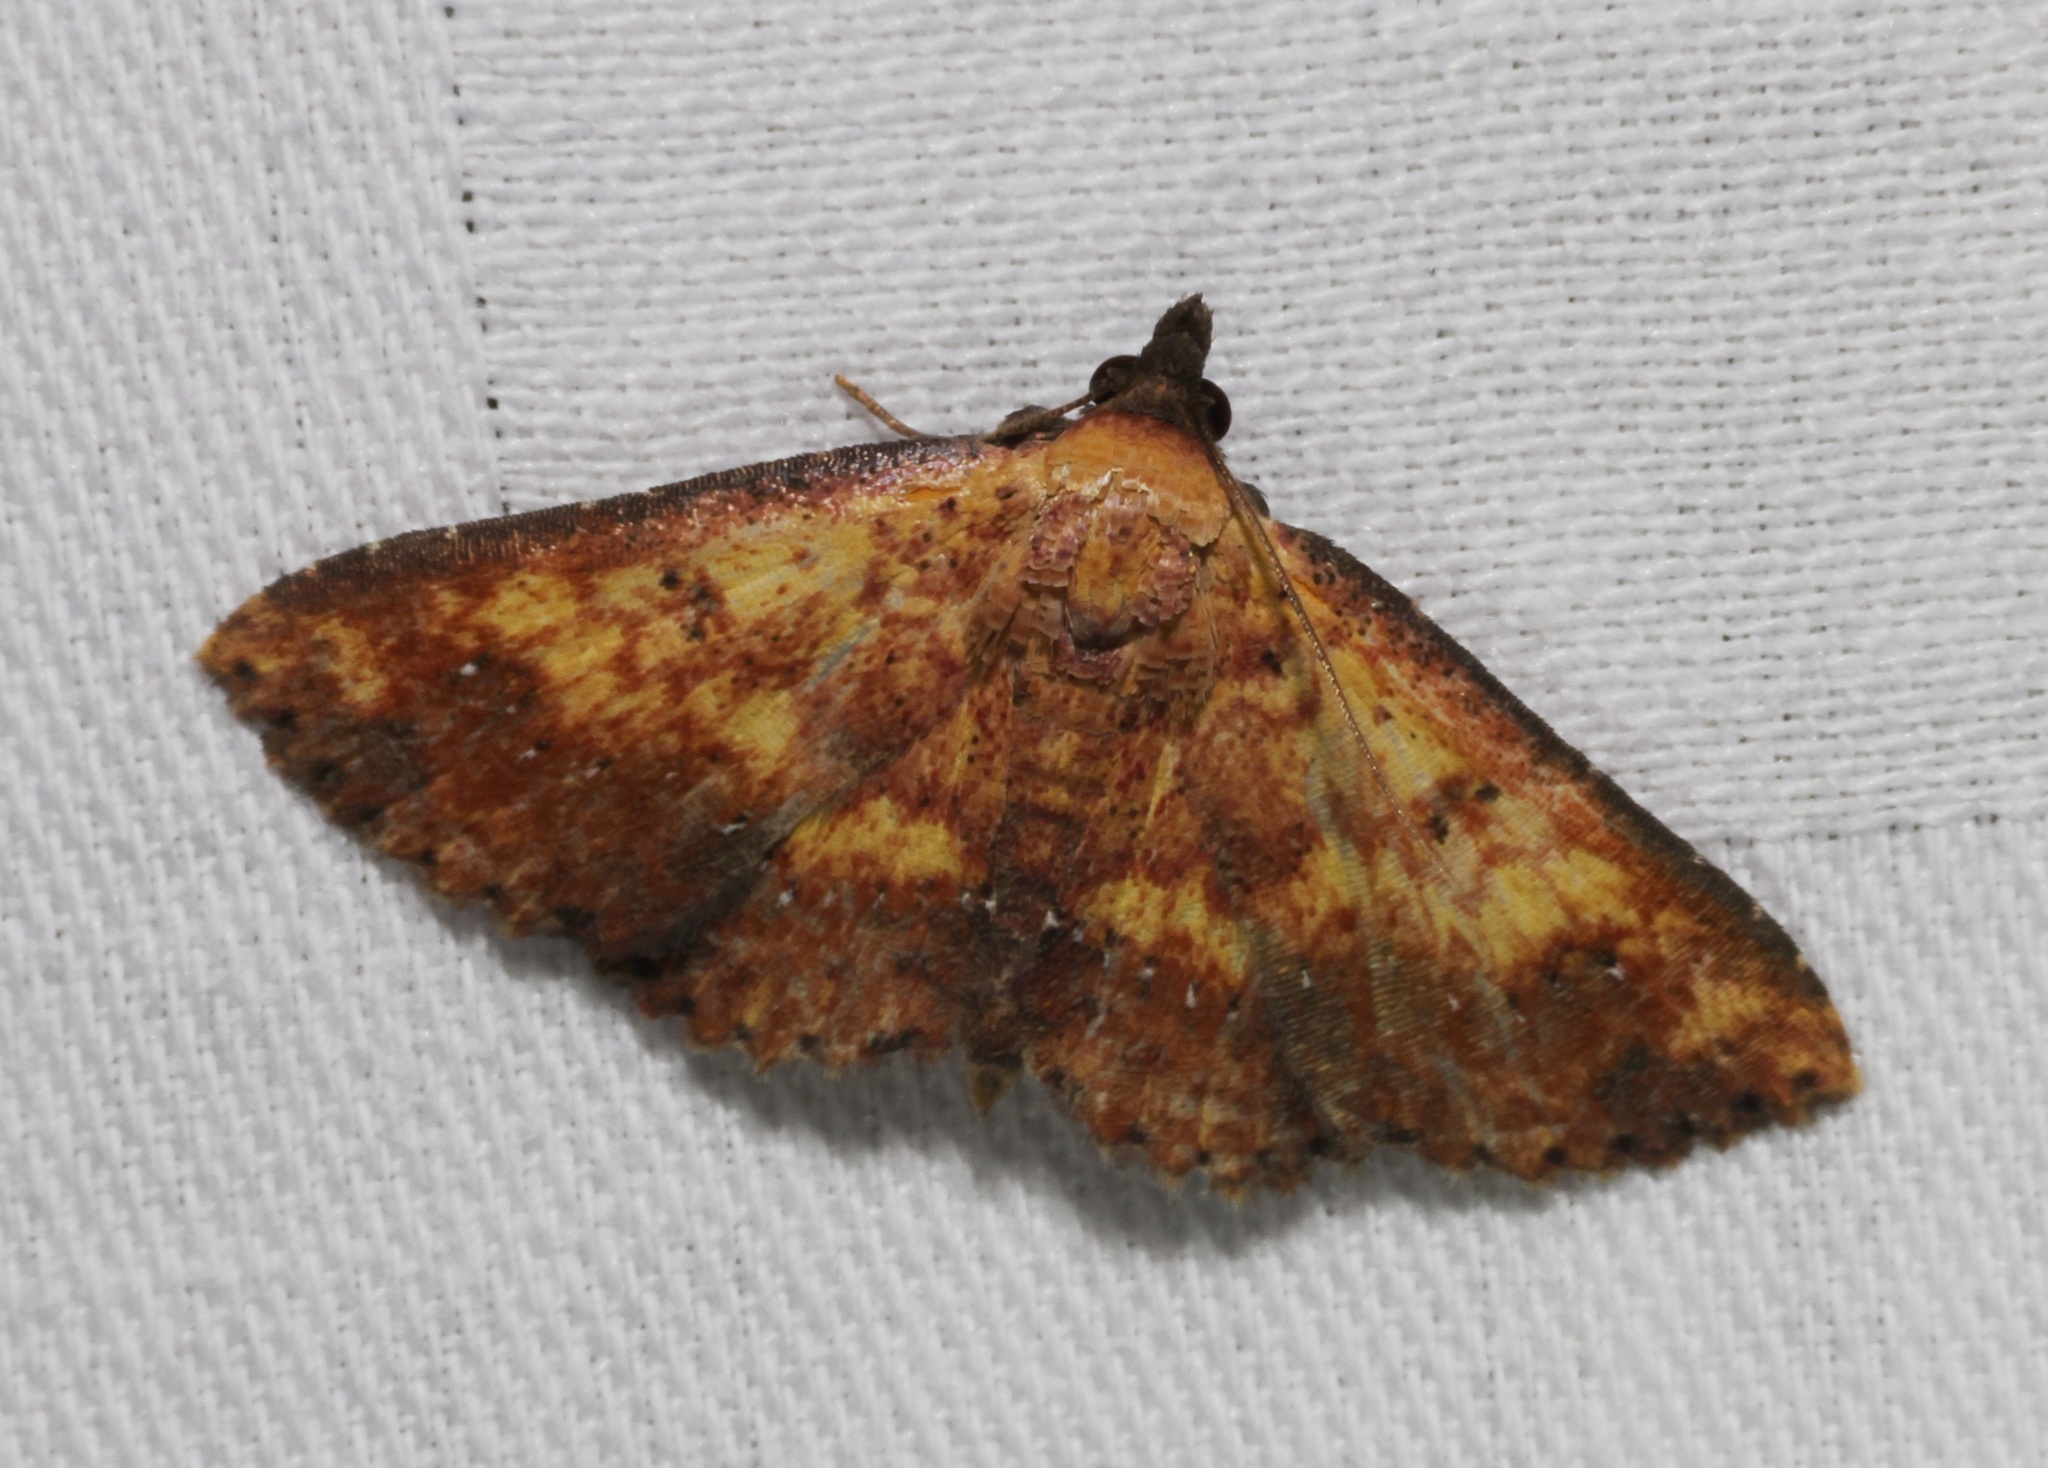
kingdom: Animalia
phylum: Arthropoda
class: Insecta
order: Lepidoptera
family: Noctuidae
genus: Cerynea
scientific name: Cerynea ustula
